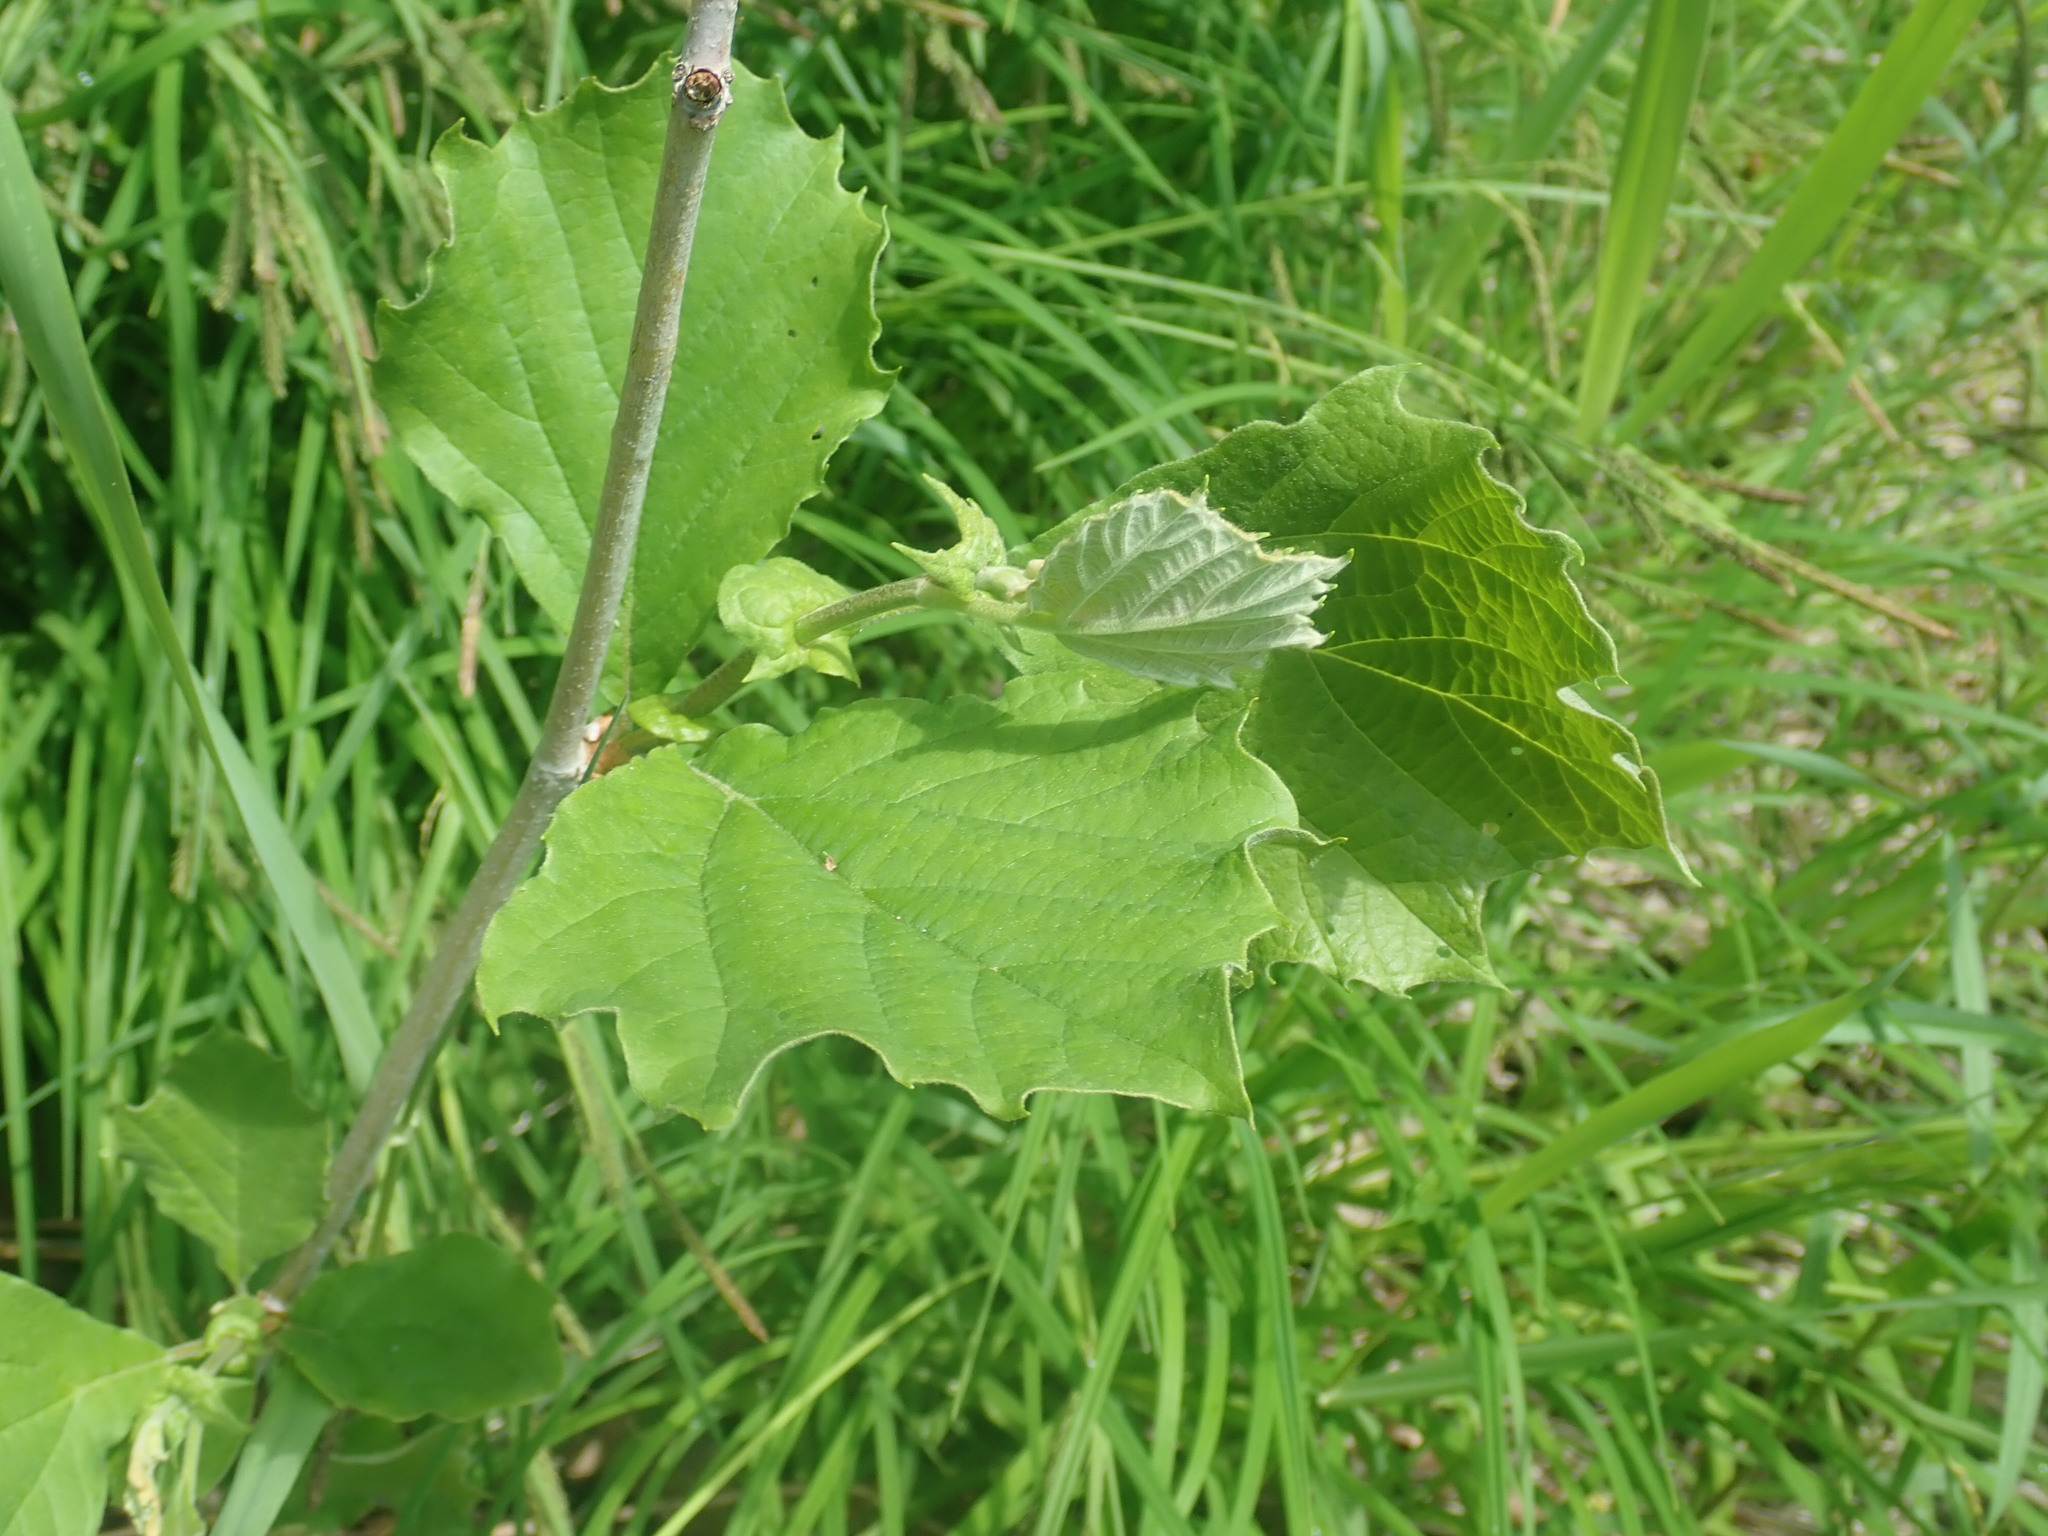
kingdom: Plantae
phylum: Tracheophyta
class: Magnoliopsida
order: Proteales
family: Platanaceae
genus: Platanus
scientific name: Platanus occidentalis
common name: American sycamore
